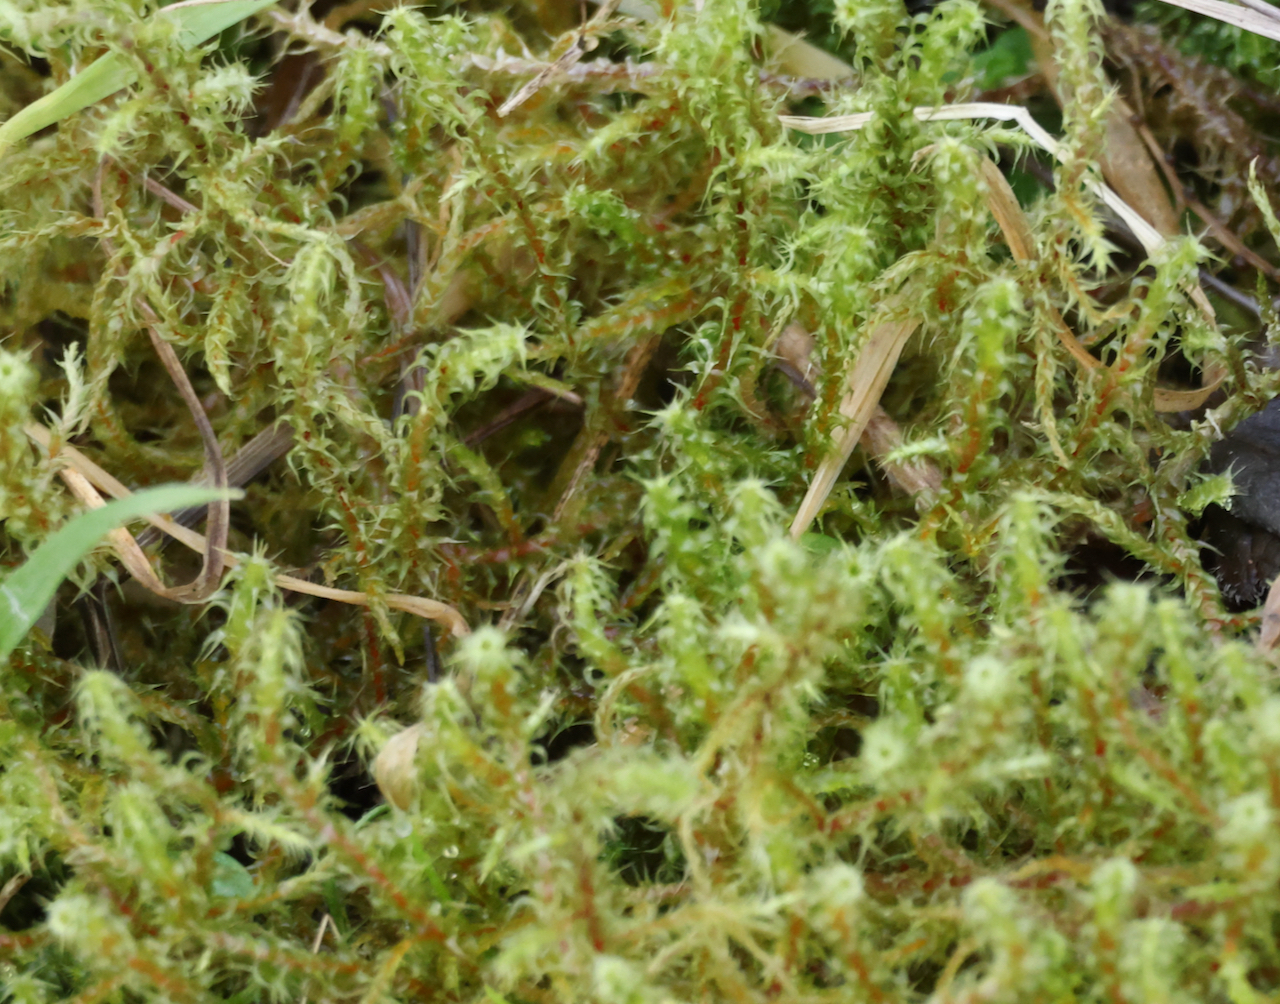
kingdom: Plantae
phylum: Bryophyta
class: Bryopsida
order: Hypnales
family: Hylocomiaceae
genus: Rhytidiadelphus
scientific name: Rhytidiadelphus squarrosus
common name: Springy turf-moss
